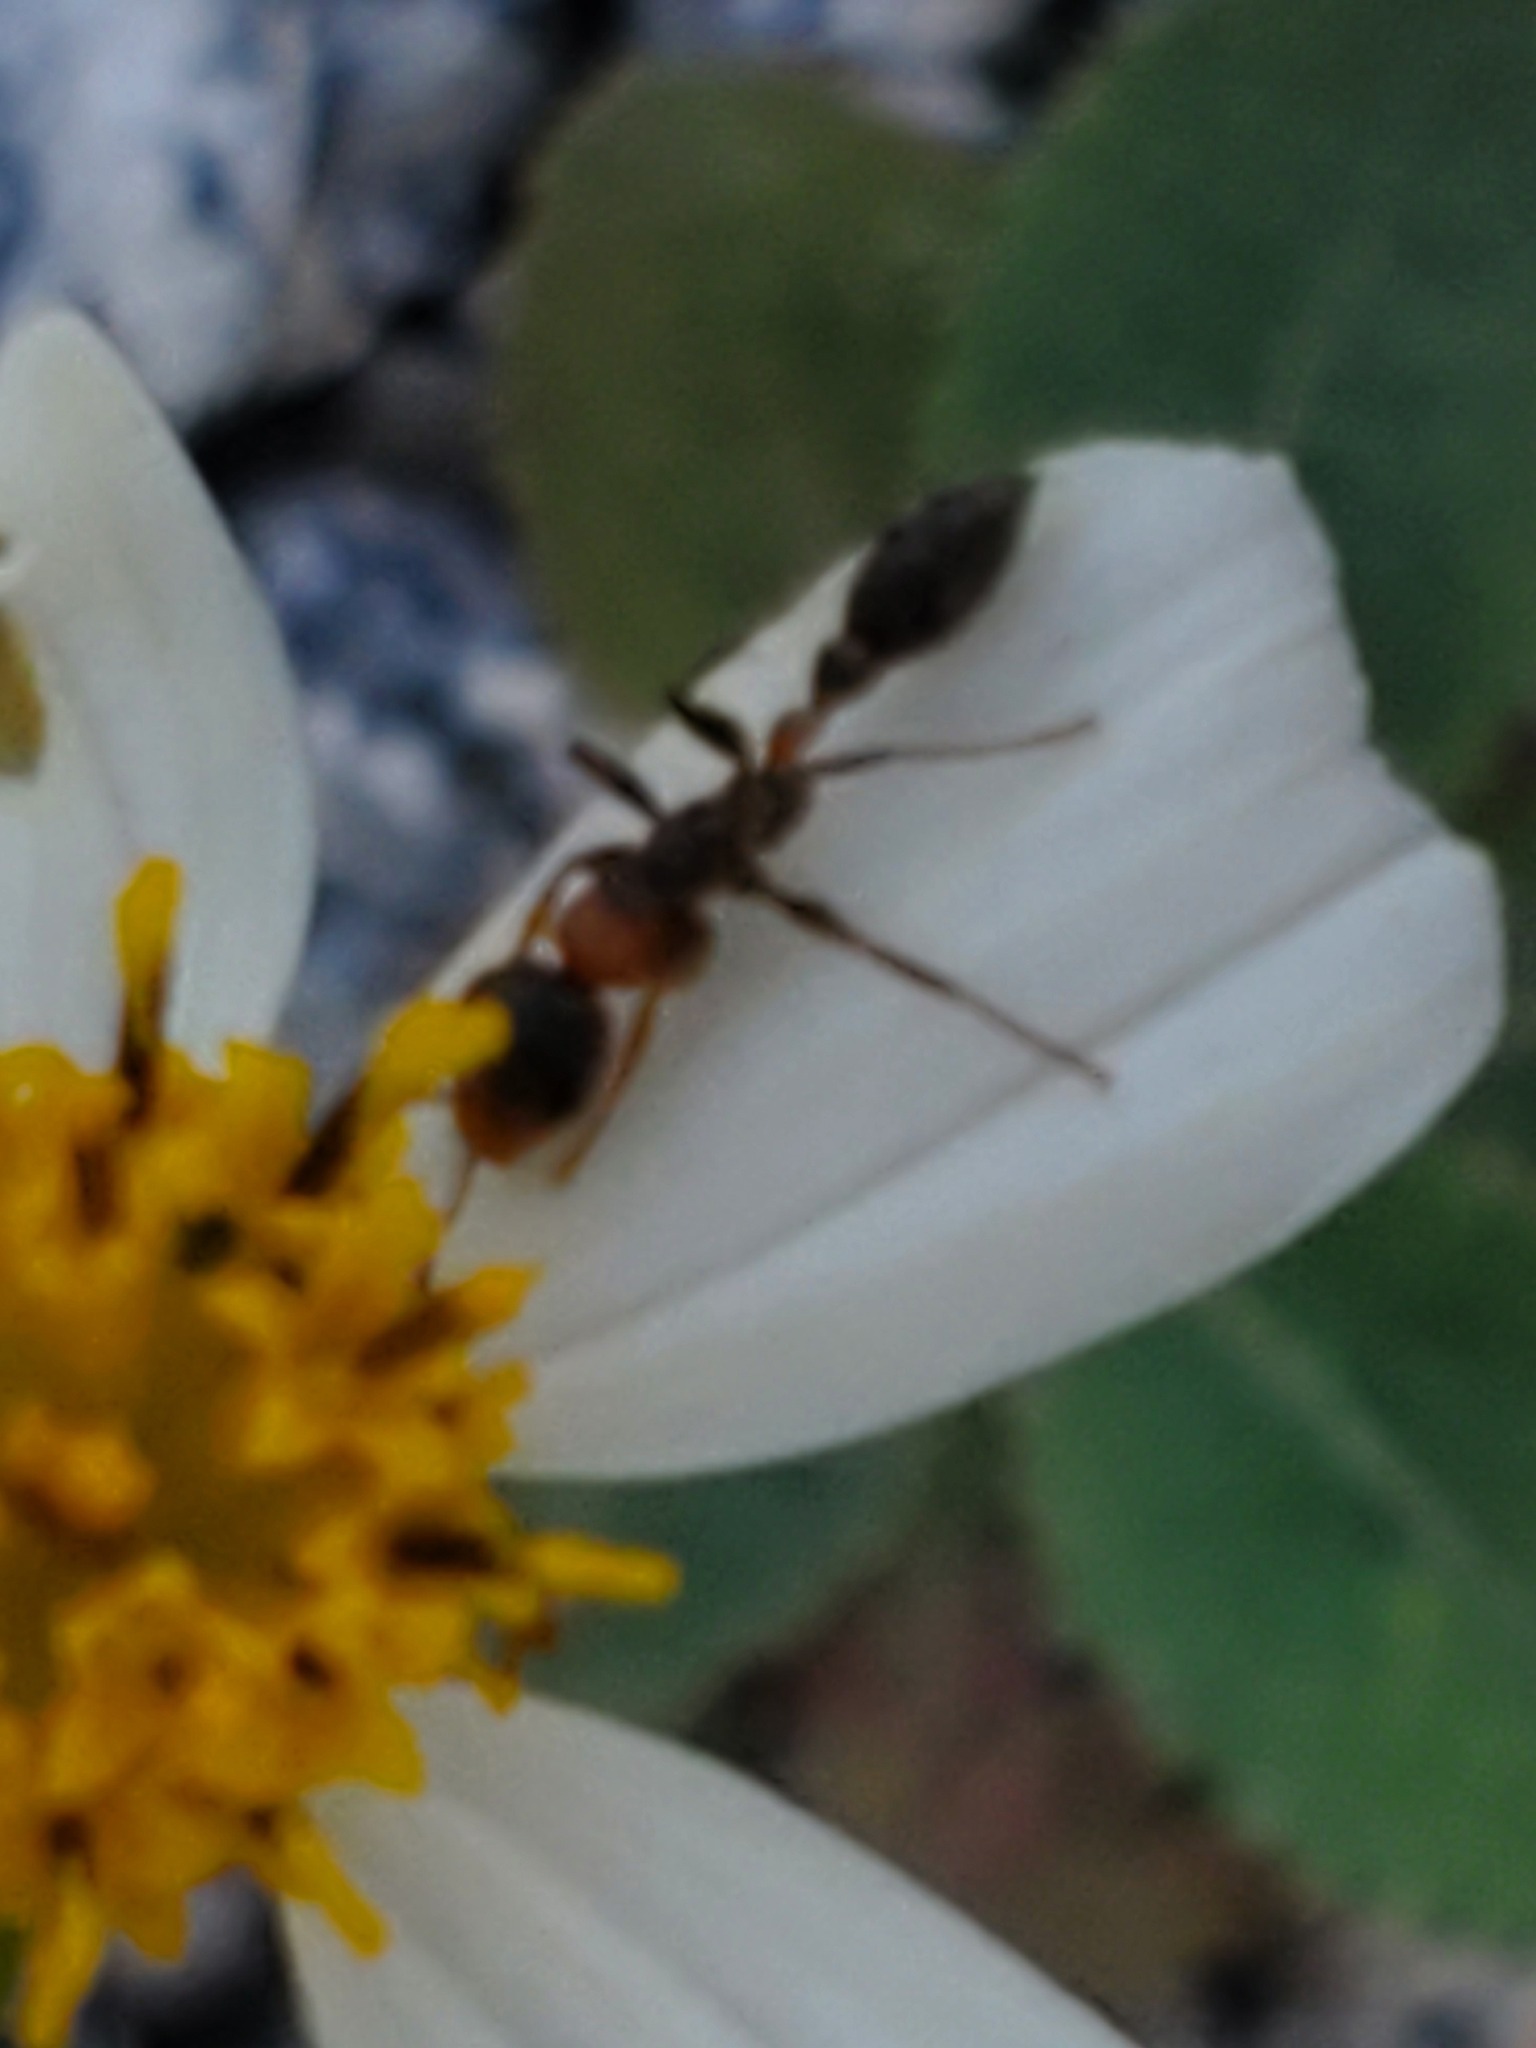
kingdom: Animalia
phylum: Arthropoda
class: Insecta
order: Hymenoptera
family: Formicidae
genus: Pseudomyrmex
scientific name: Pseudomyrmex gracilis
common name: Graceful twig ant
